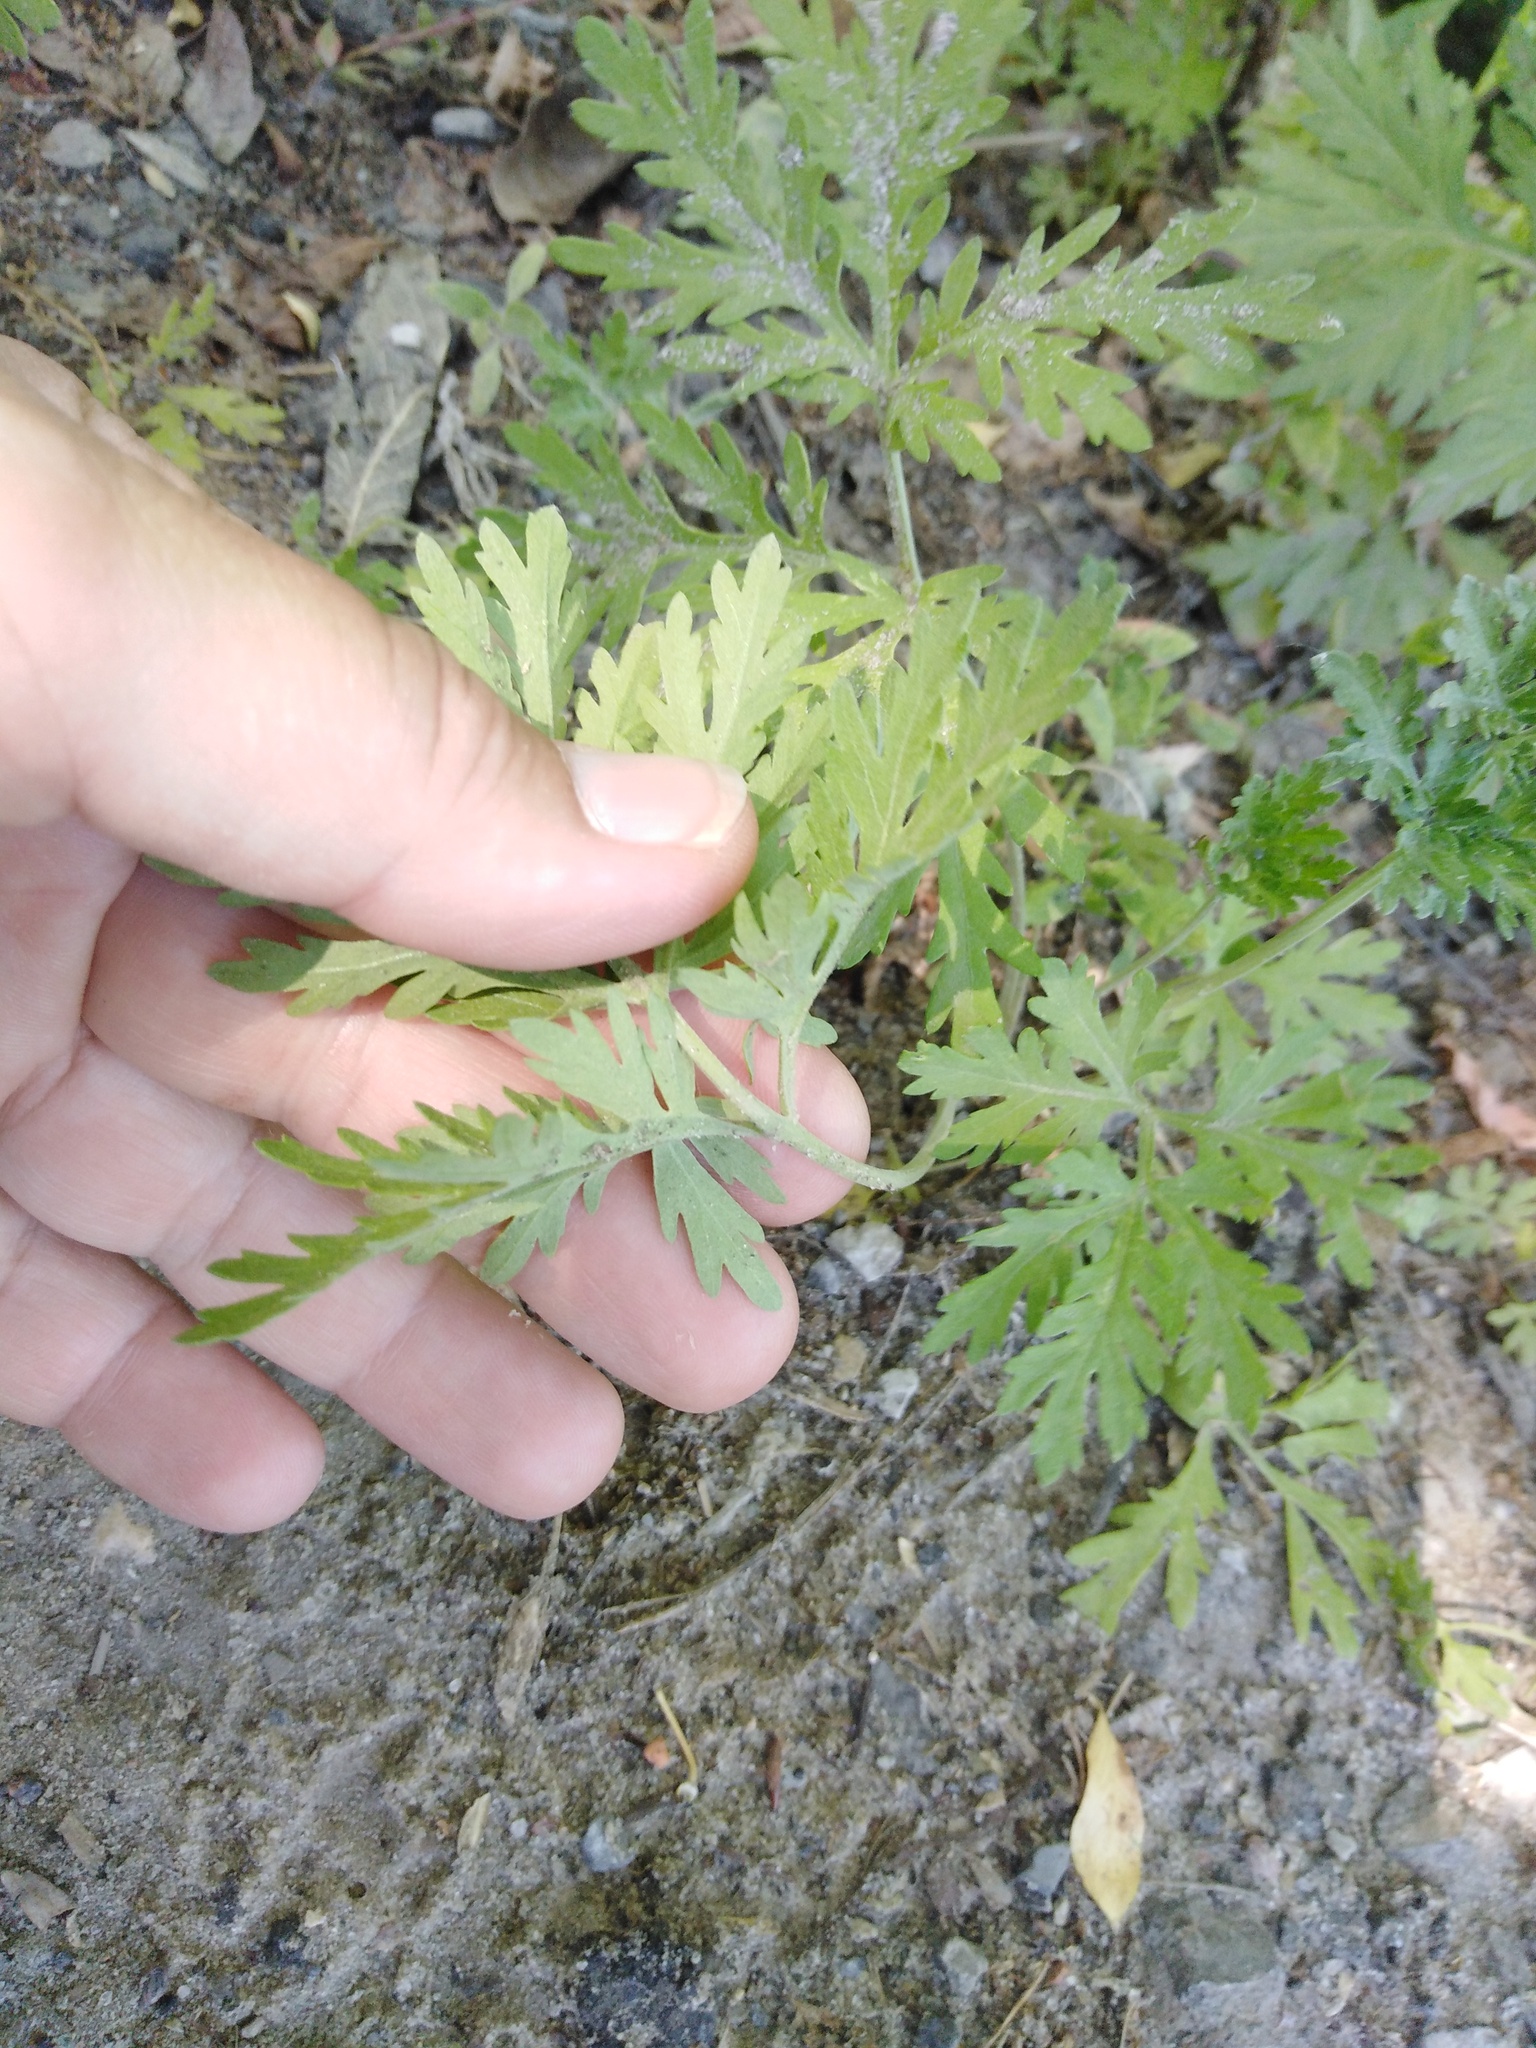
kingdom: Plantae
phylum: Tracheophyta
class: Magnoliopsida
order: Asterales
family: Asteraceae
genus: Artemisia
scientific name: Artemisia sieversiana
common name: Sieversian wormwood
